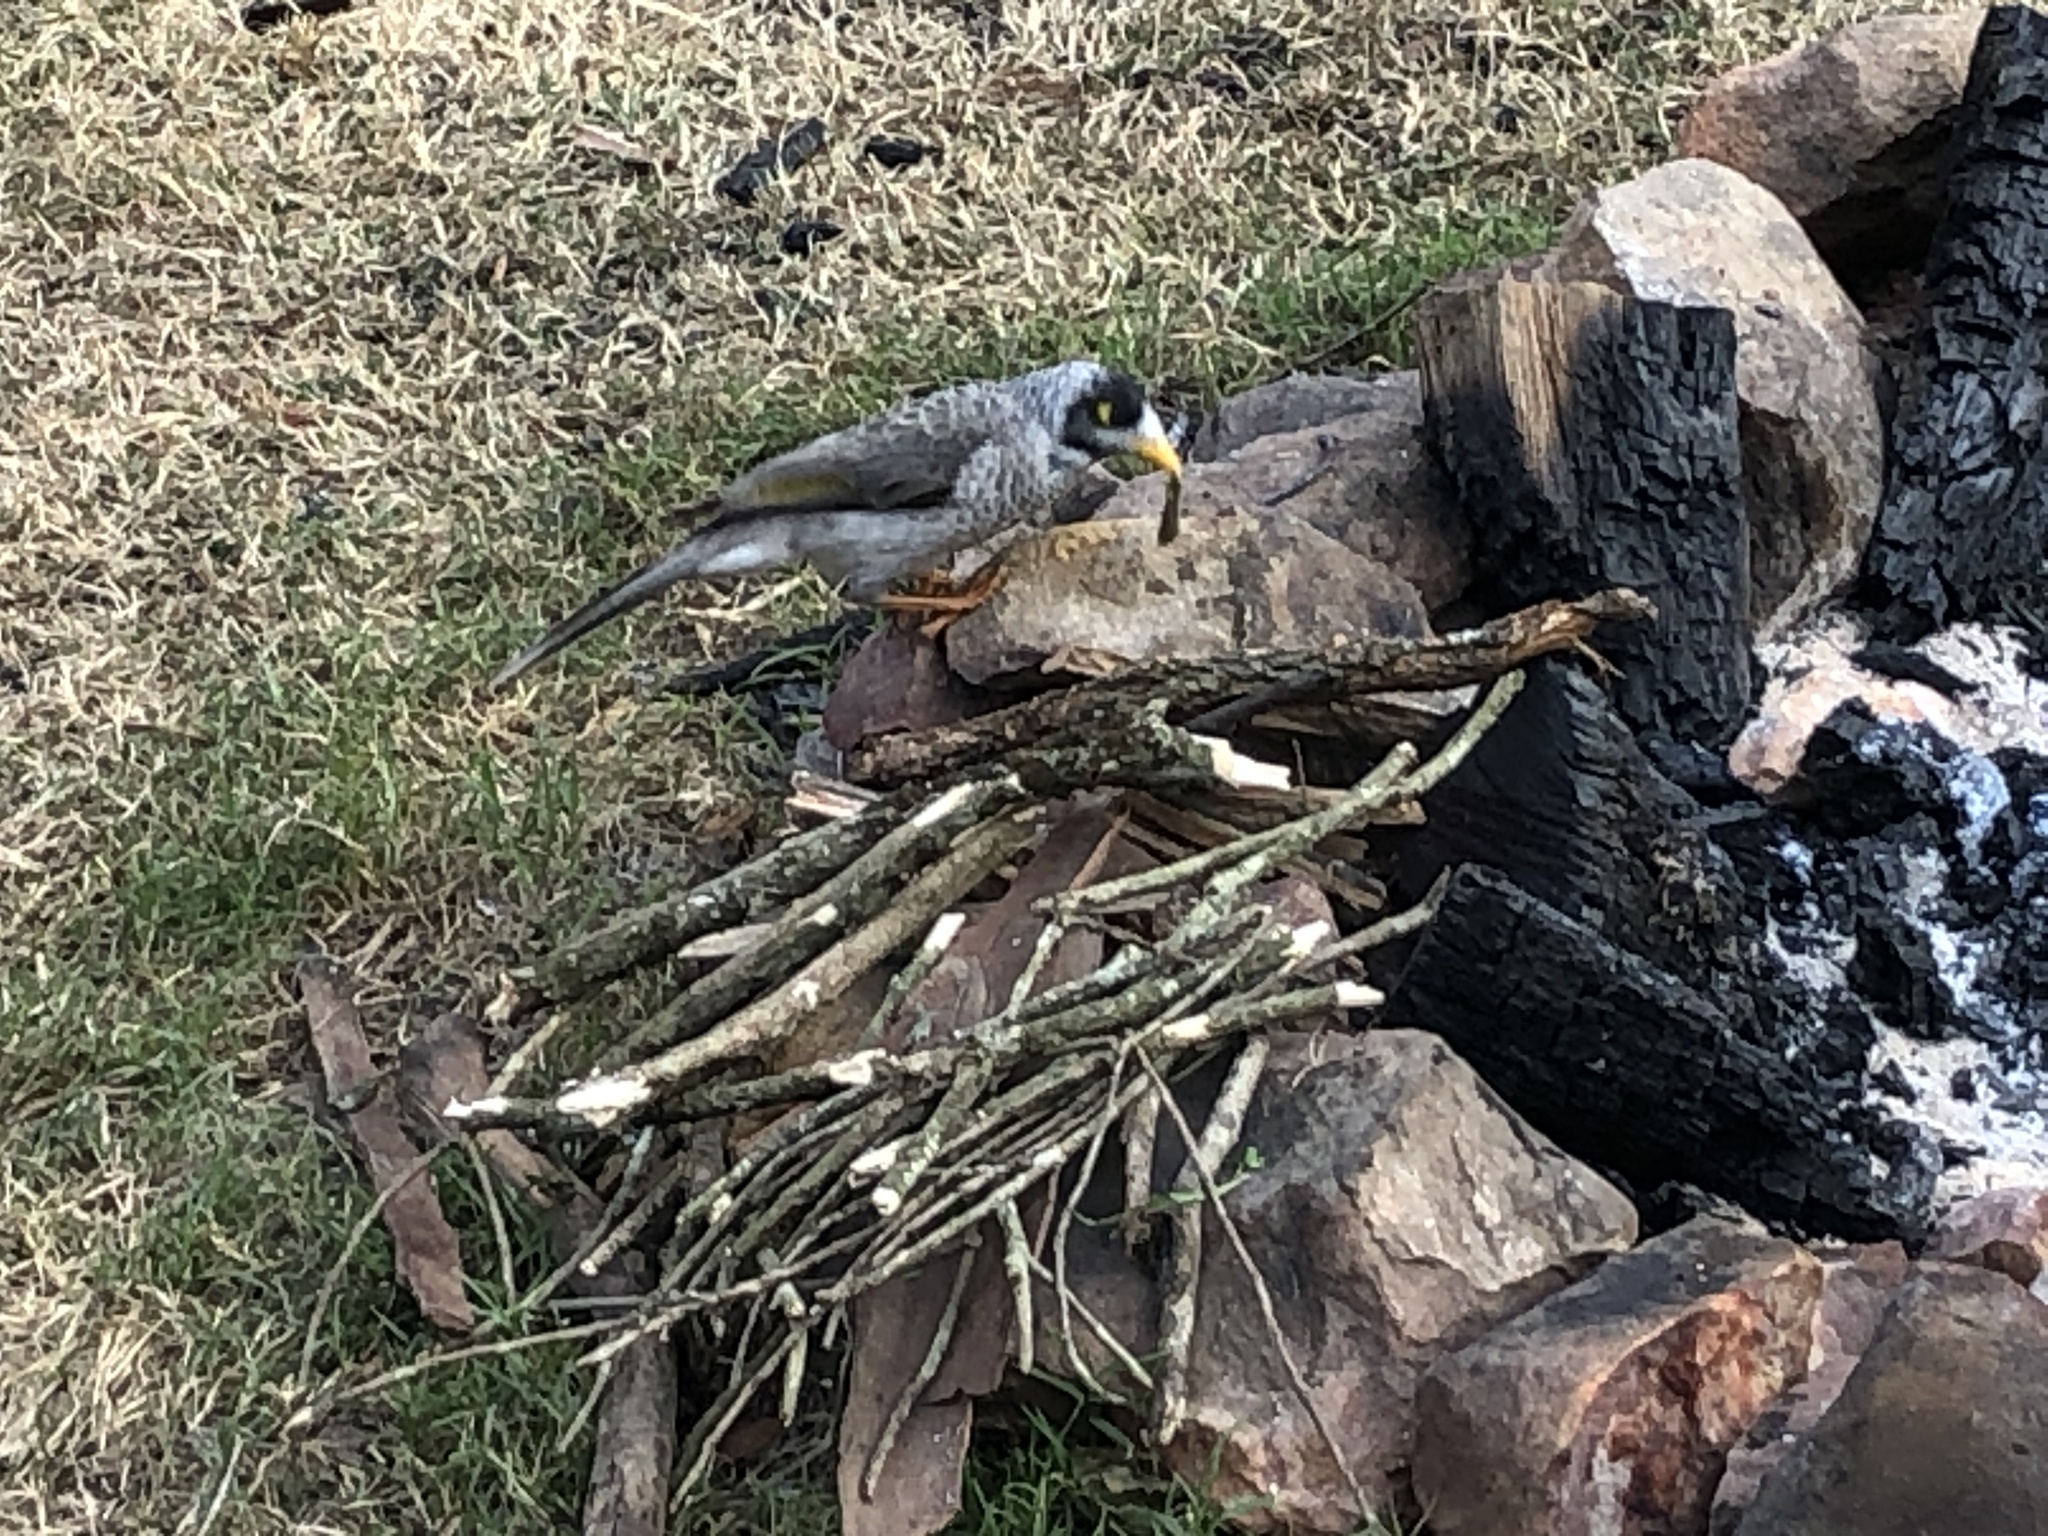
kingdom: Animalia
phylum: Chordata
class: Aves
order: Passeriformes
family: Meliphagidae
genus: Manorina
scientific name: Manorina melanocephala
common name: Noisy miner
